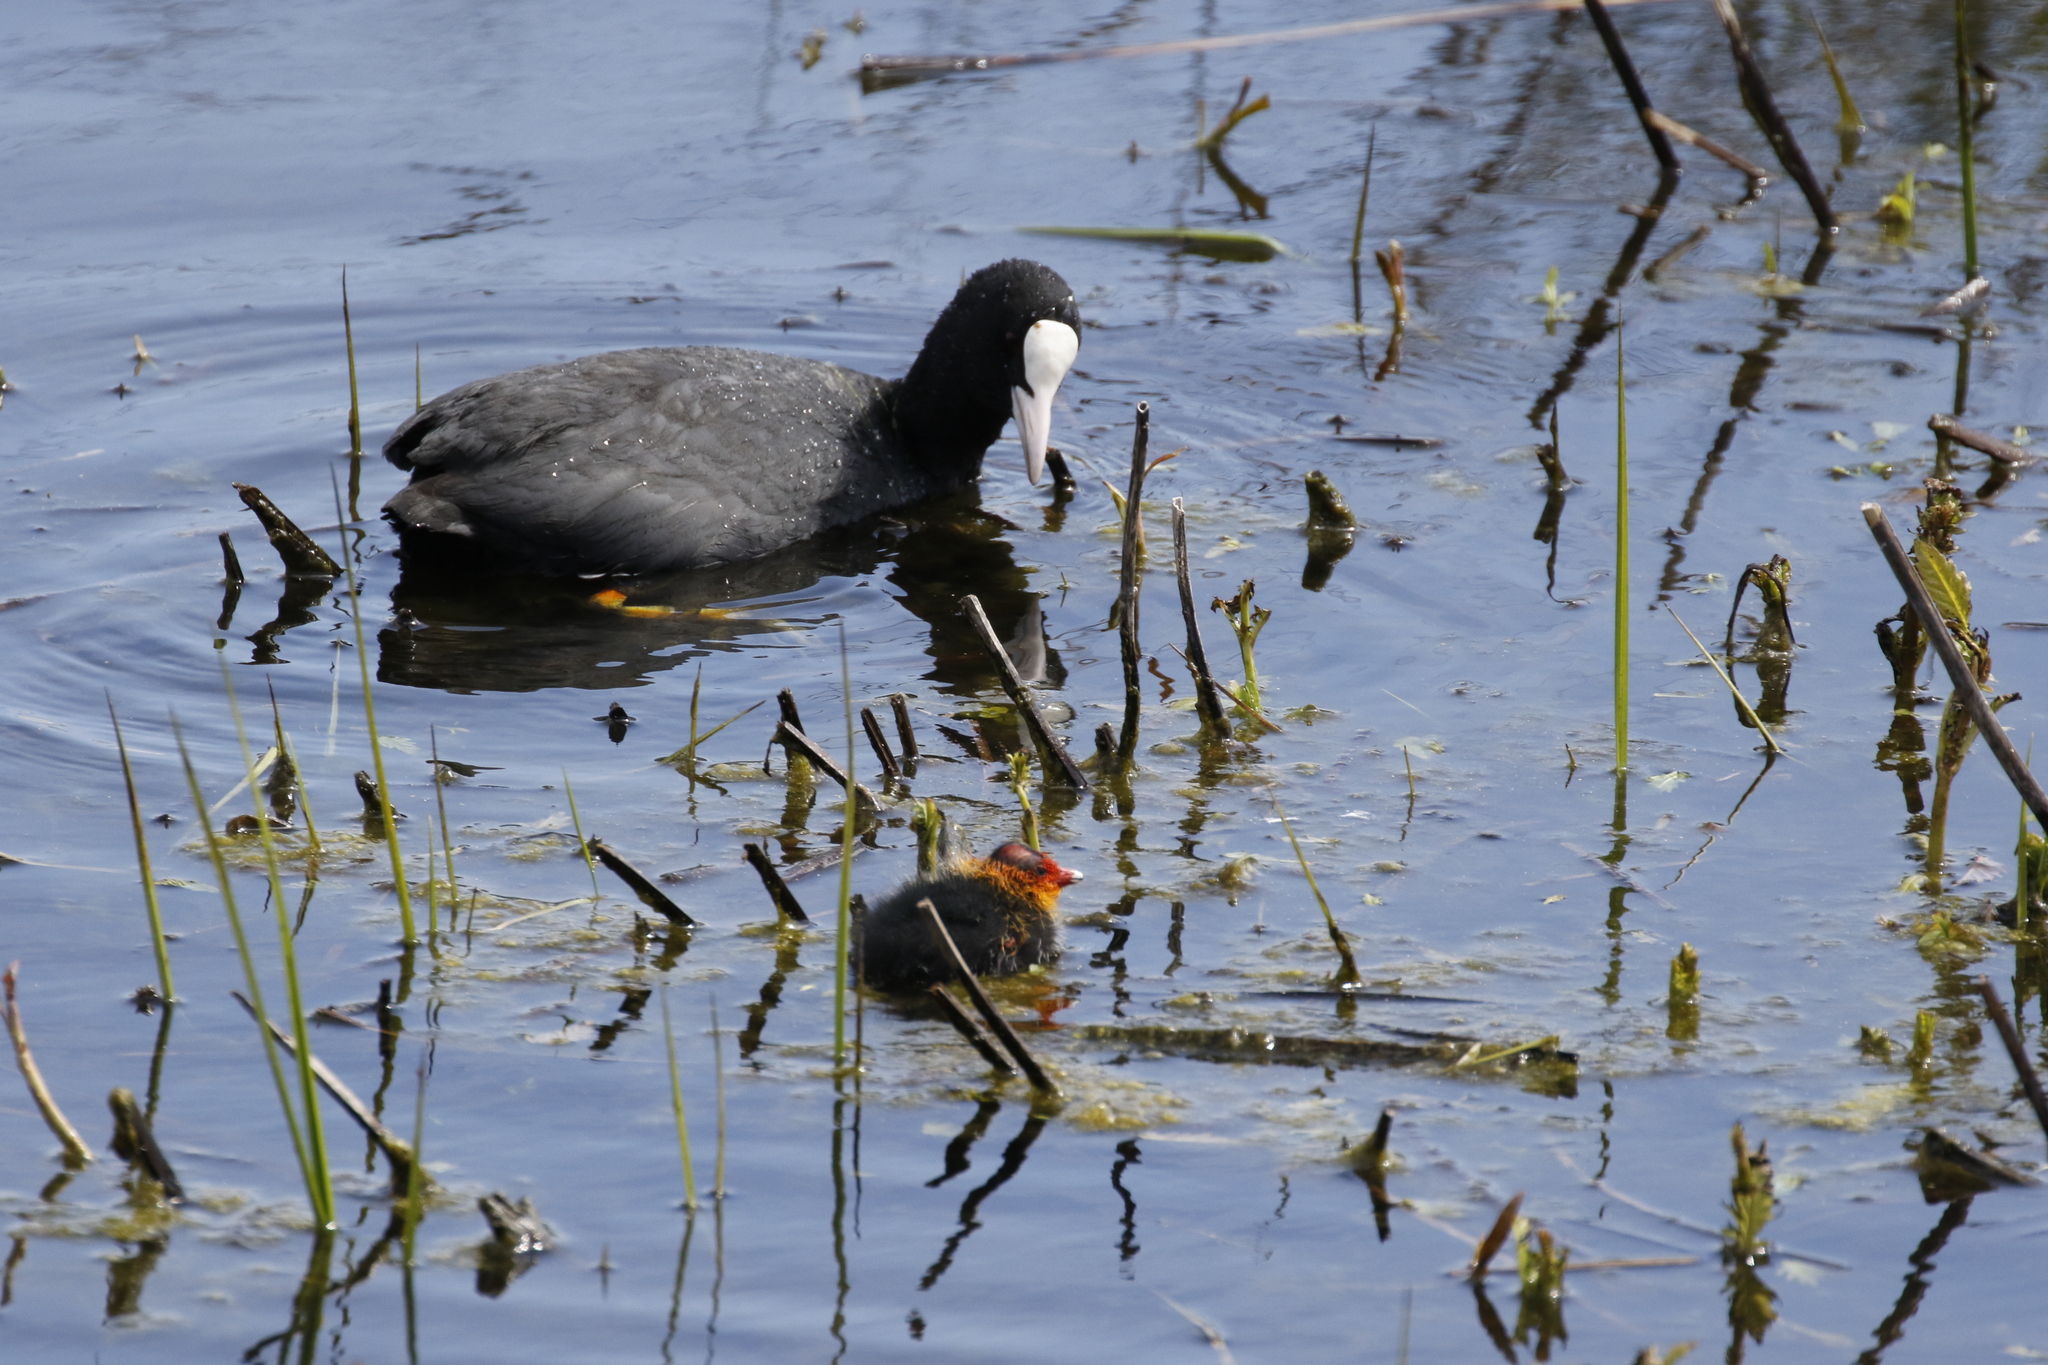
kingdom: Animalia
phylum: Chordata
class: Aves
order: Gruiformes
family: Rallidae
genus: Fulica
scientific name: Fulica atra
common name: Eurasian coot
